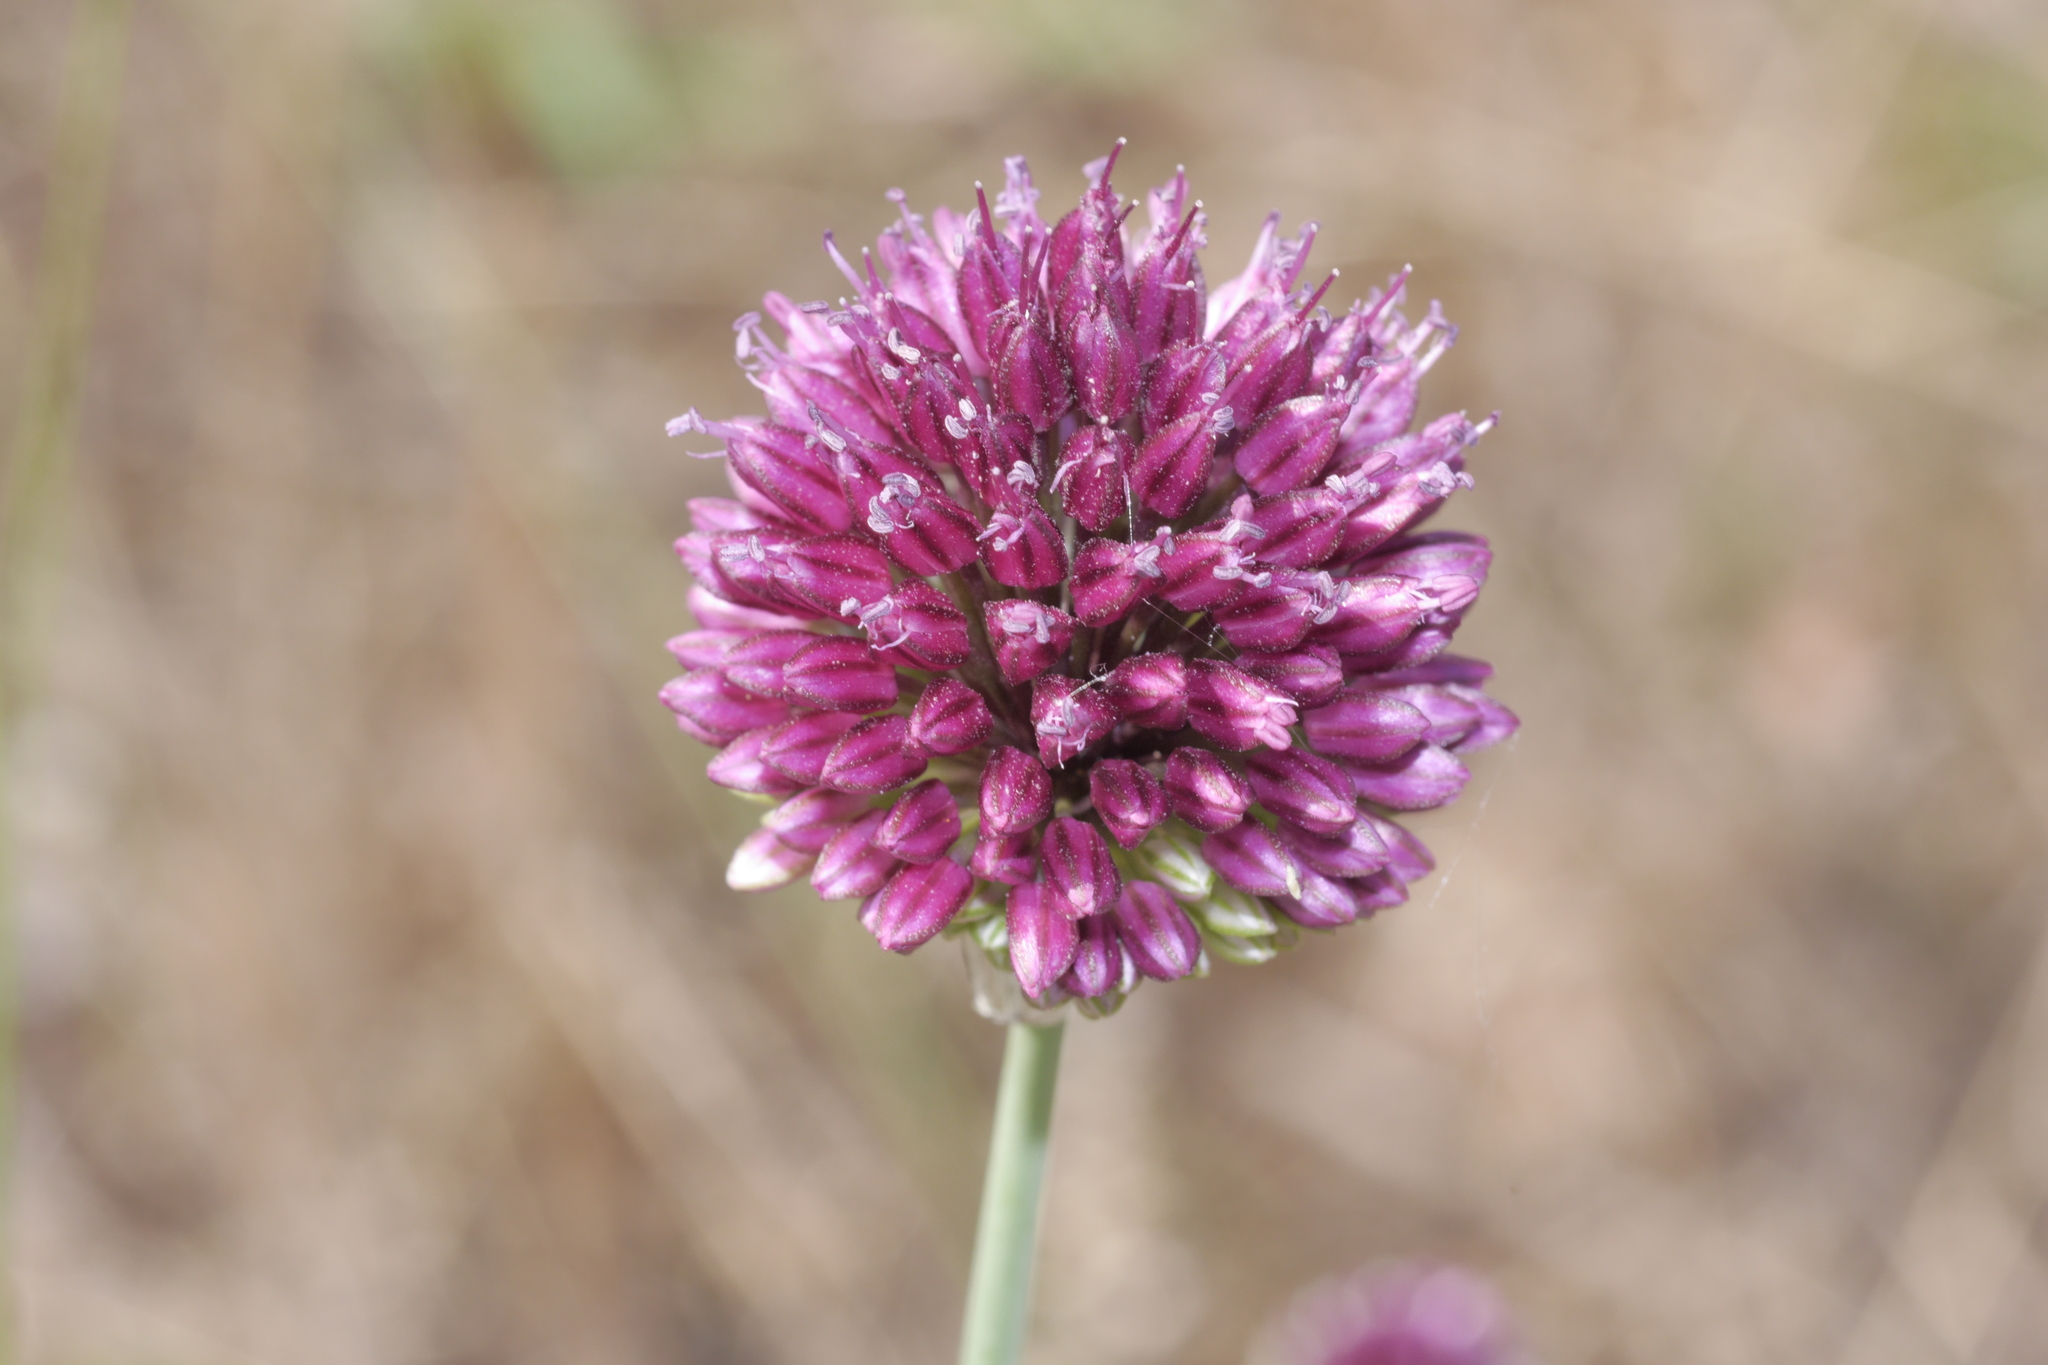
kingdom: Plantae
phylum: Tracheophyta
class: Liliopsida
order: Asparagales
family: Amaryllidaceae
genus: Allium
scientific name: Allium sphaerocephalon
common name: Round-headed leek
